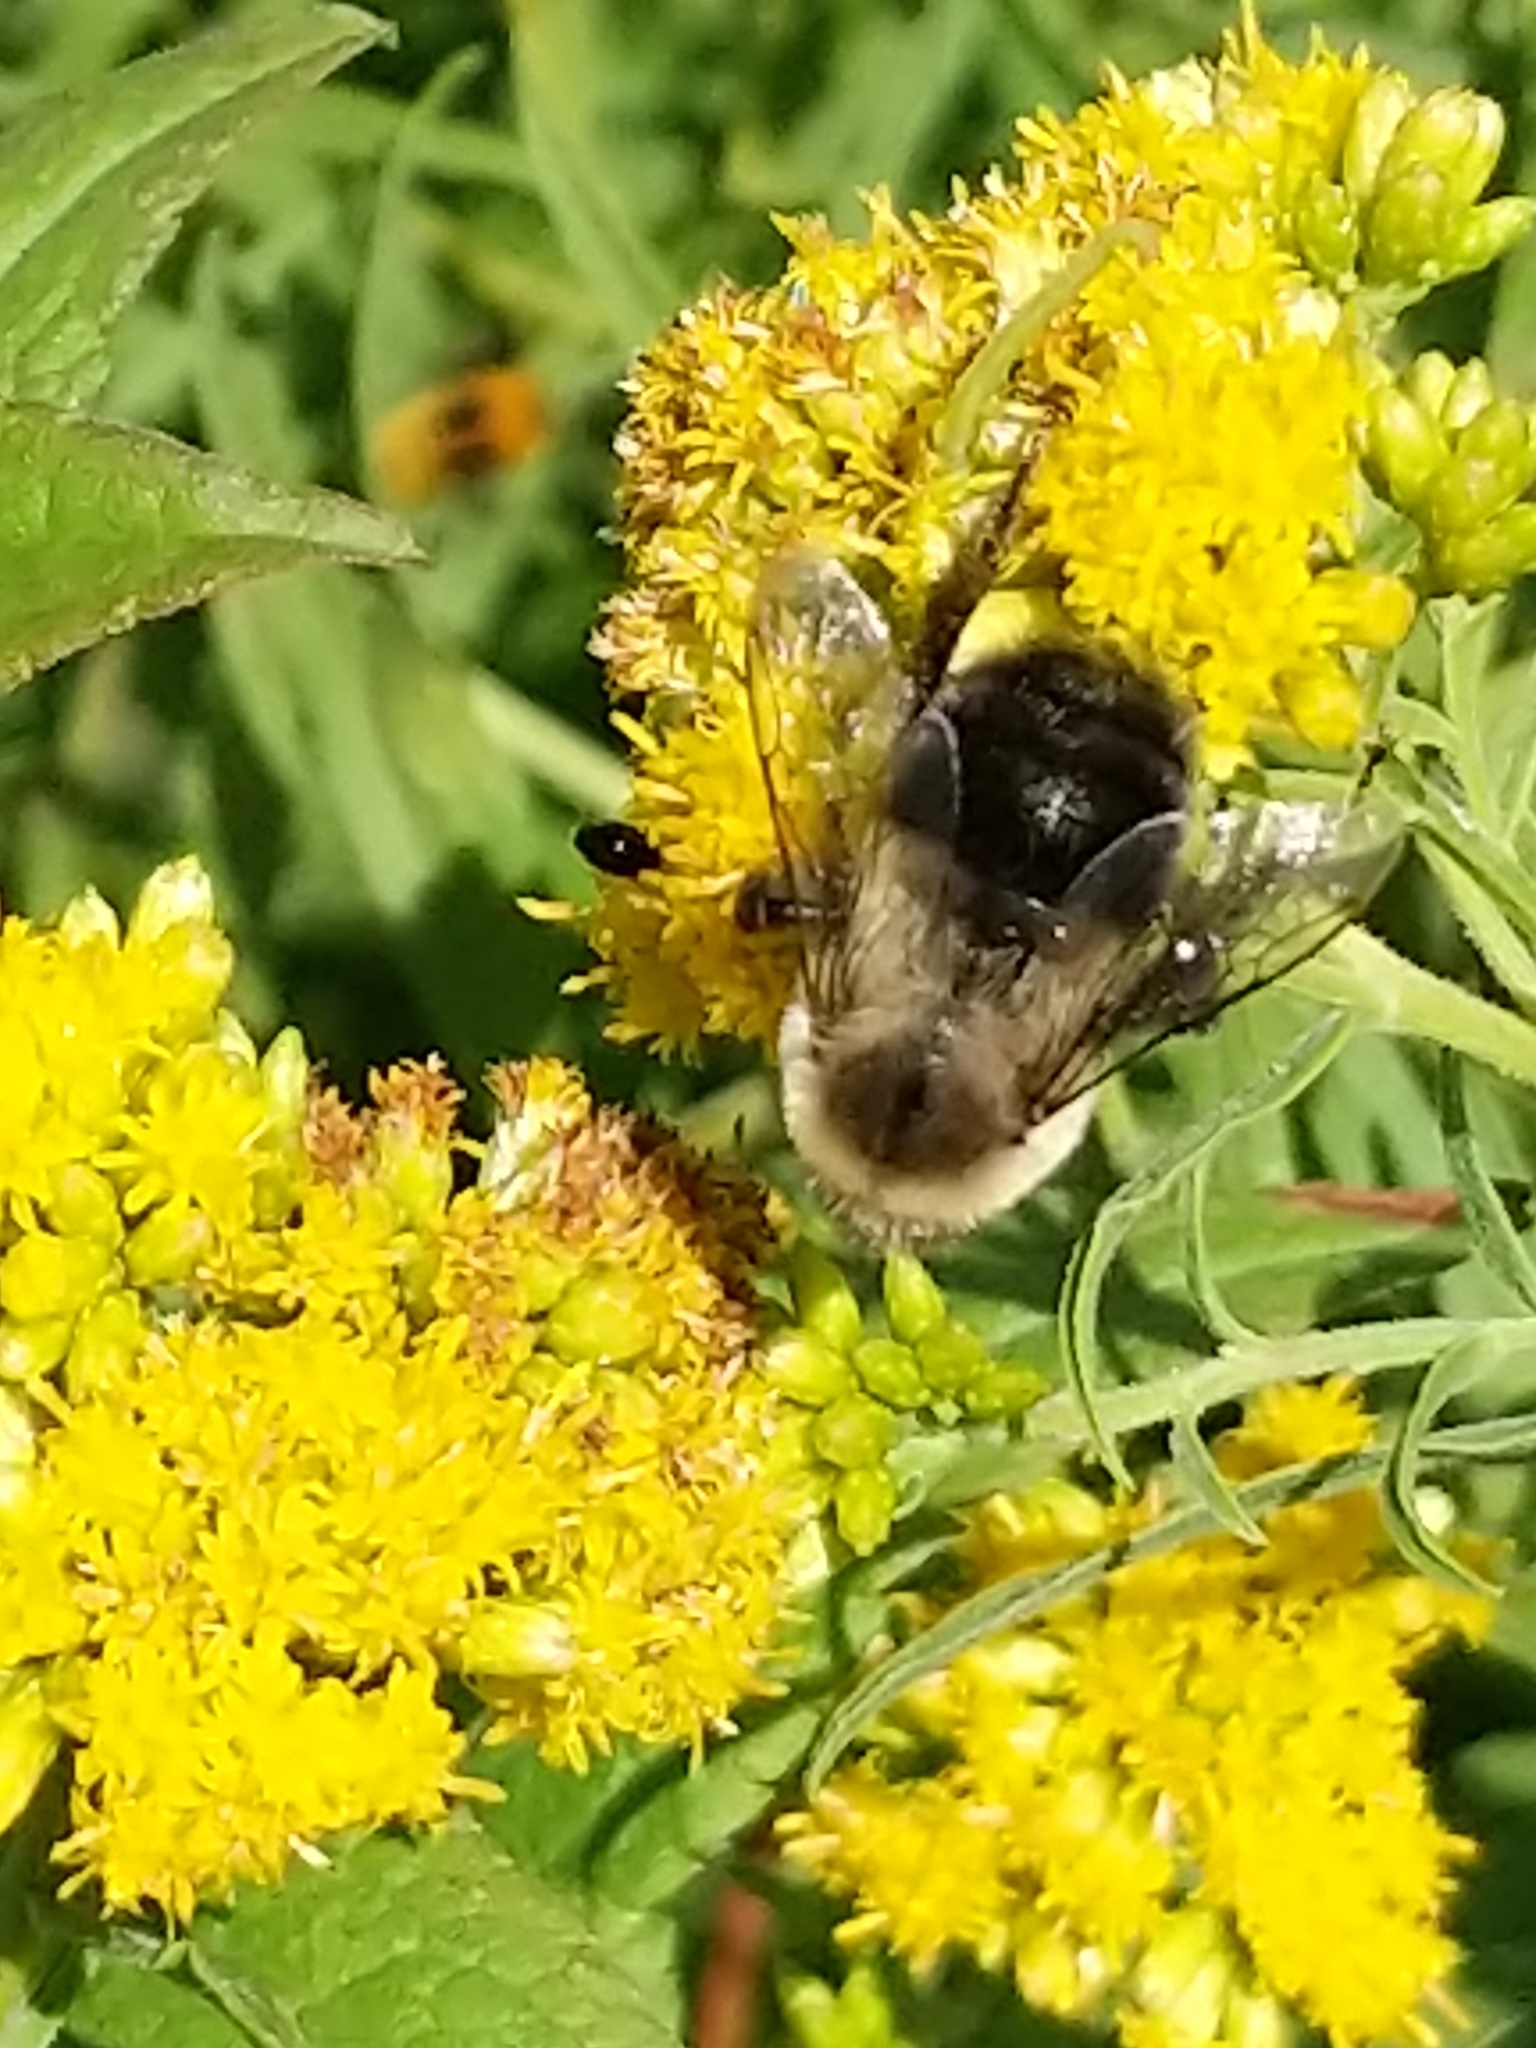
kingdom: Animalia
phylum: Arthropoda
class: Insecta
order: Hymenoptera
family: Apidae
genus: Bombus
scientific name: Bombus impatiens
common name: Common eastern bumble bee
